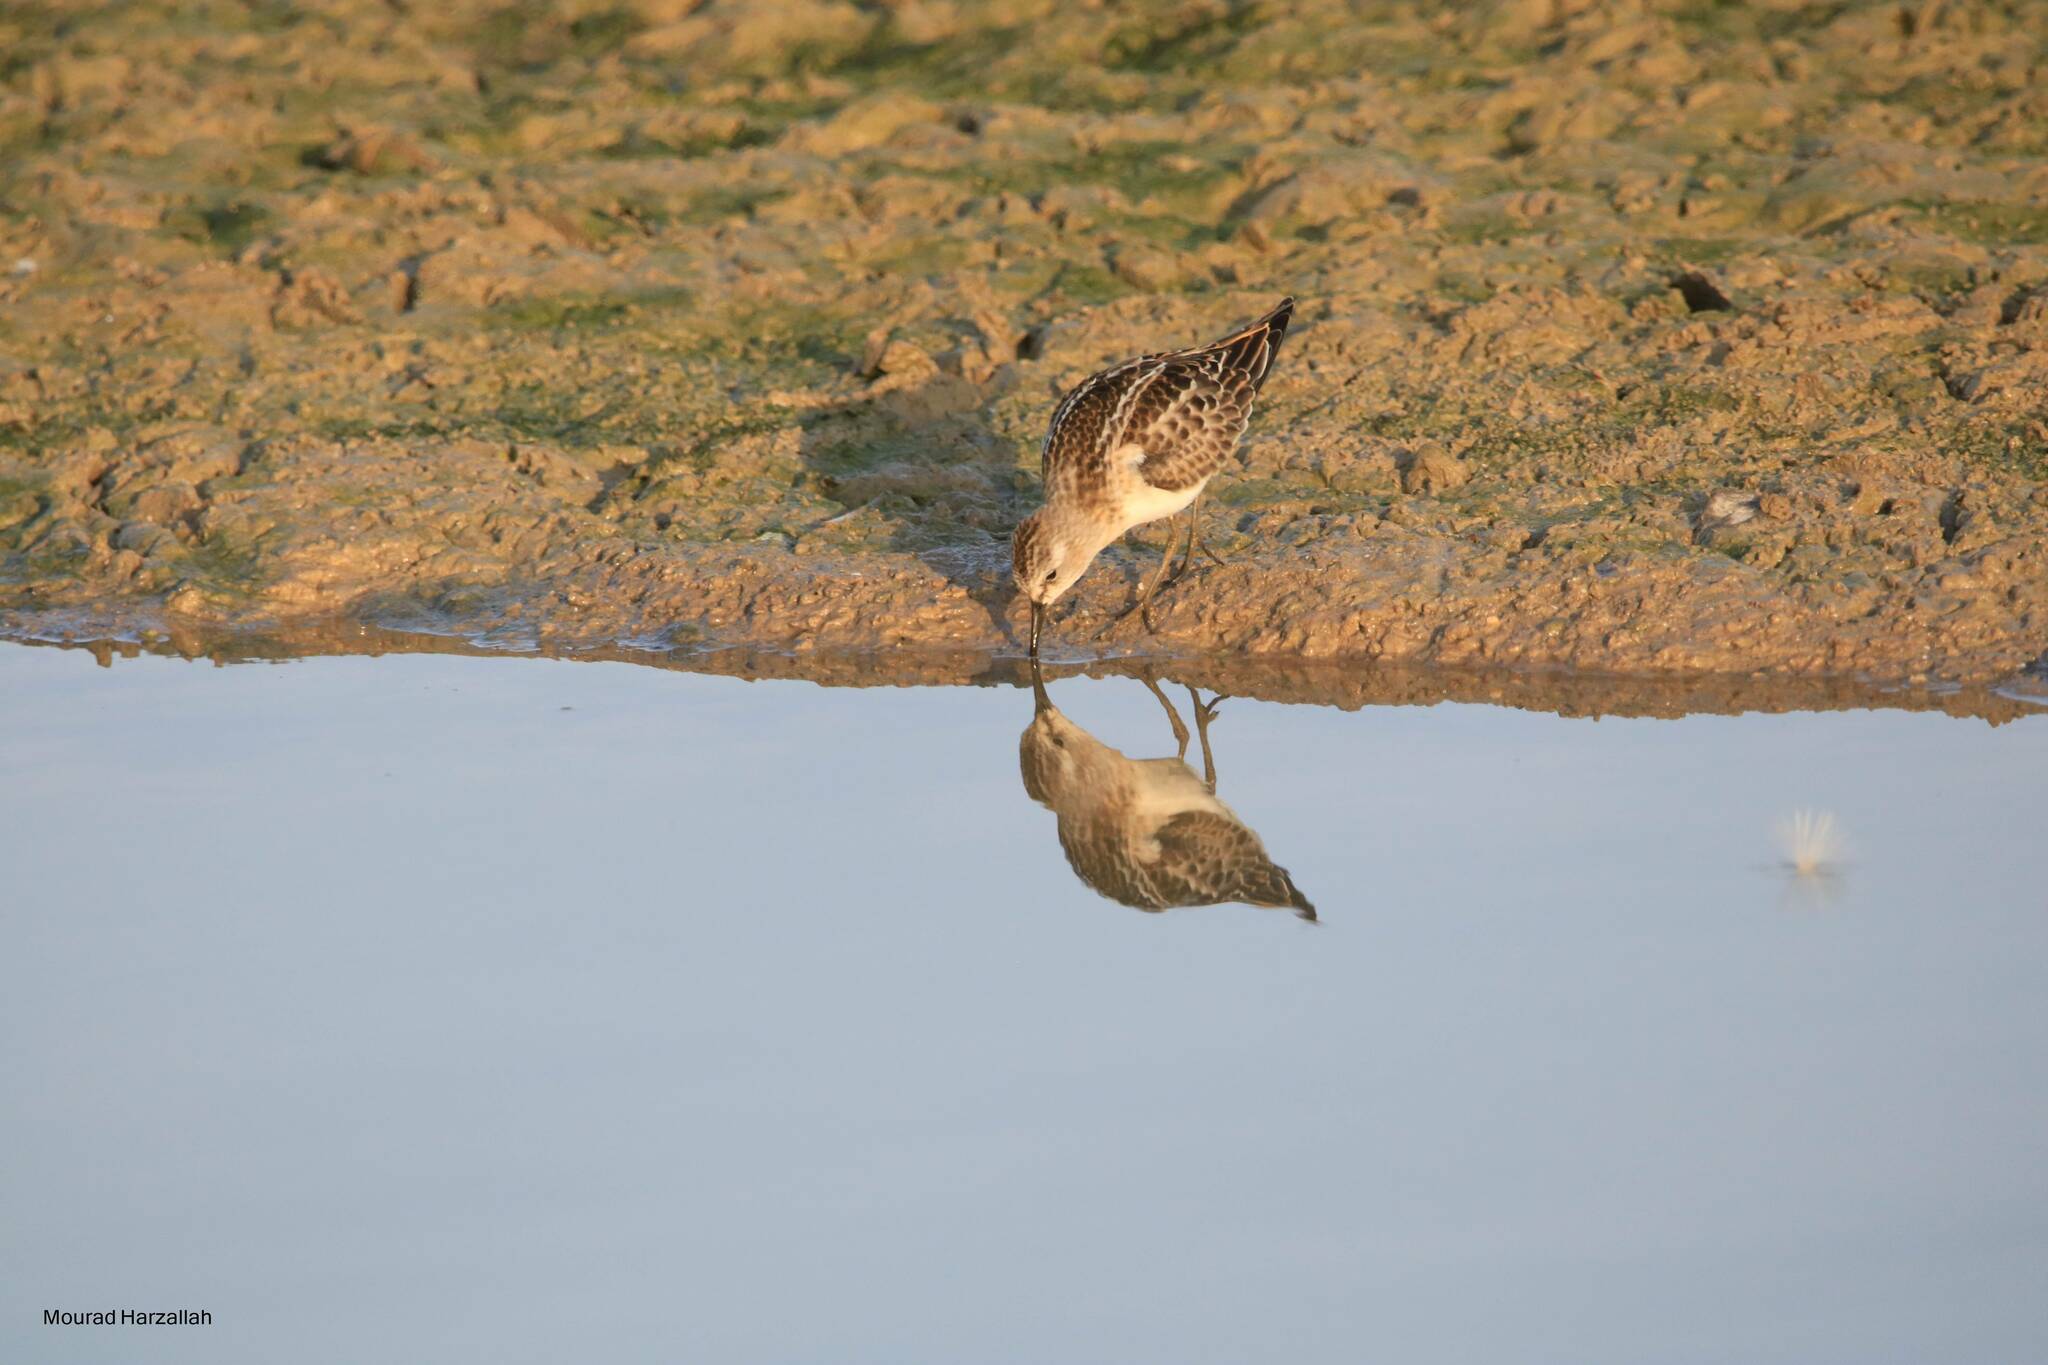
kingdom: Animalia
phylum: Chordata
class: Aves
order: Charadriiformes
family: Scolopacidae
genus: Calidris
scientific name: Calidris minuta
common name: Little stint
